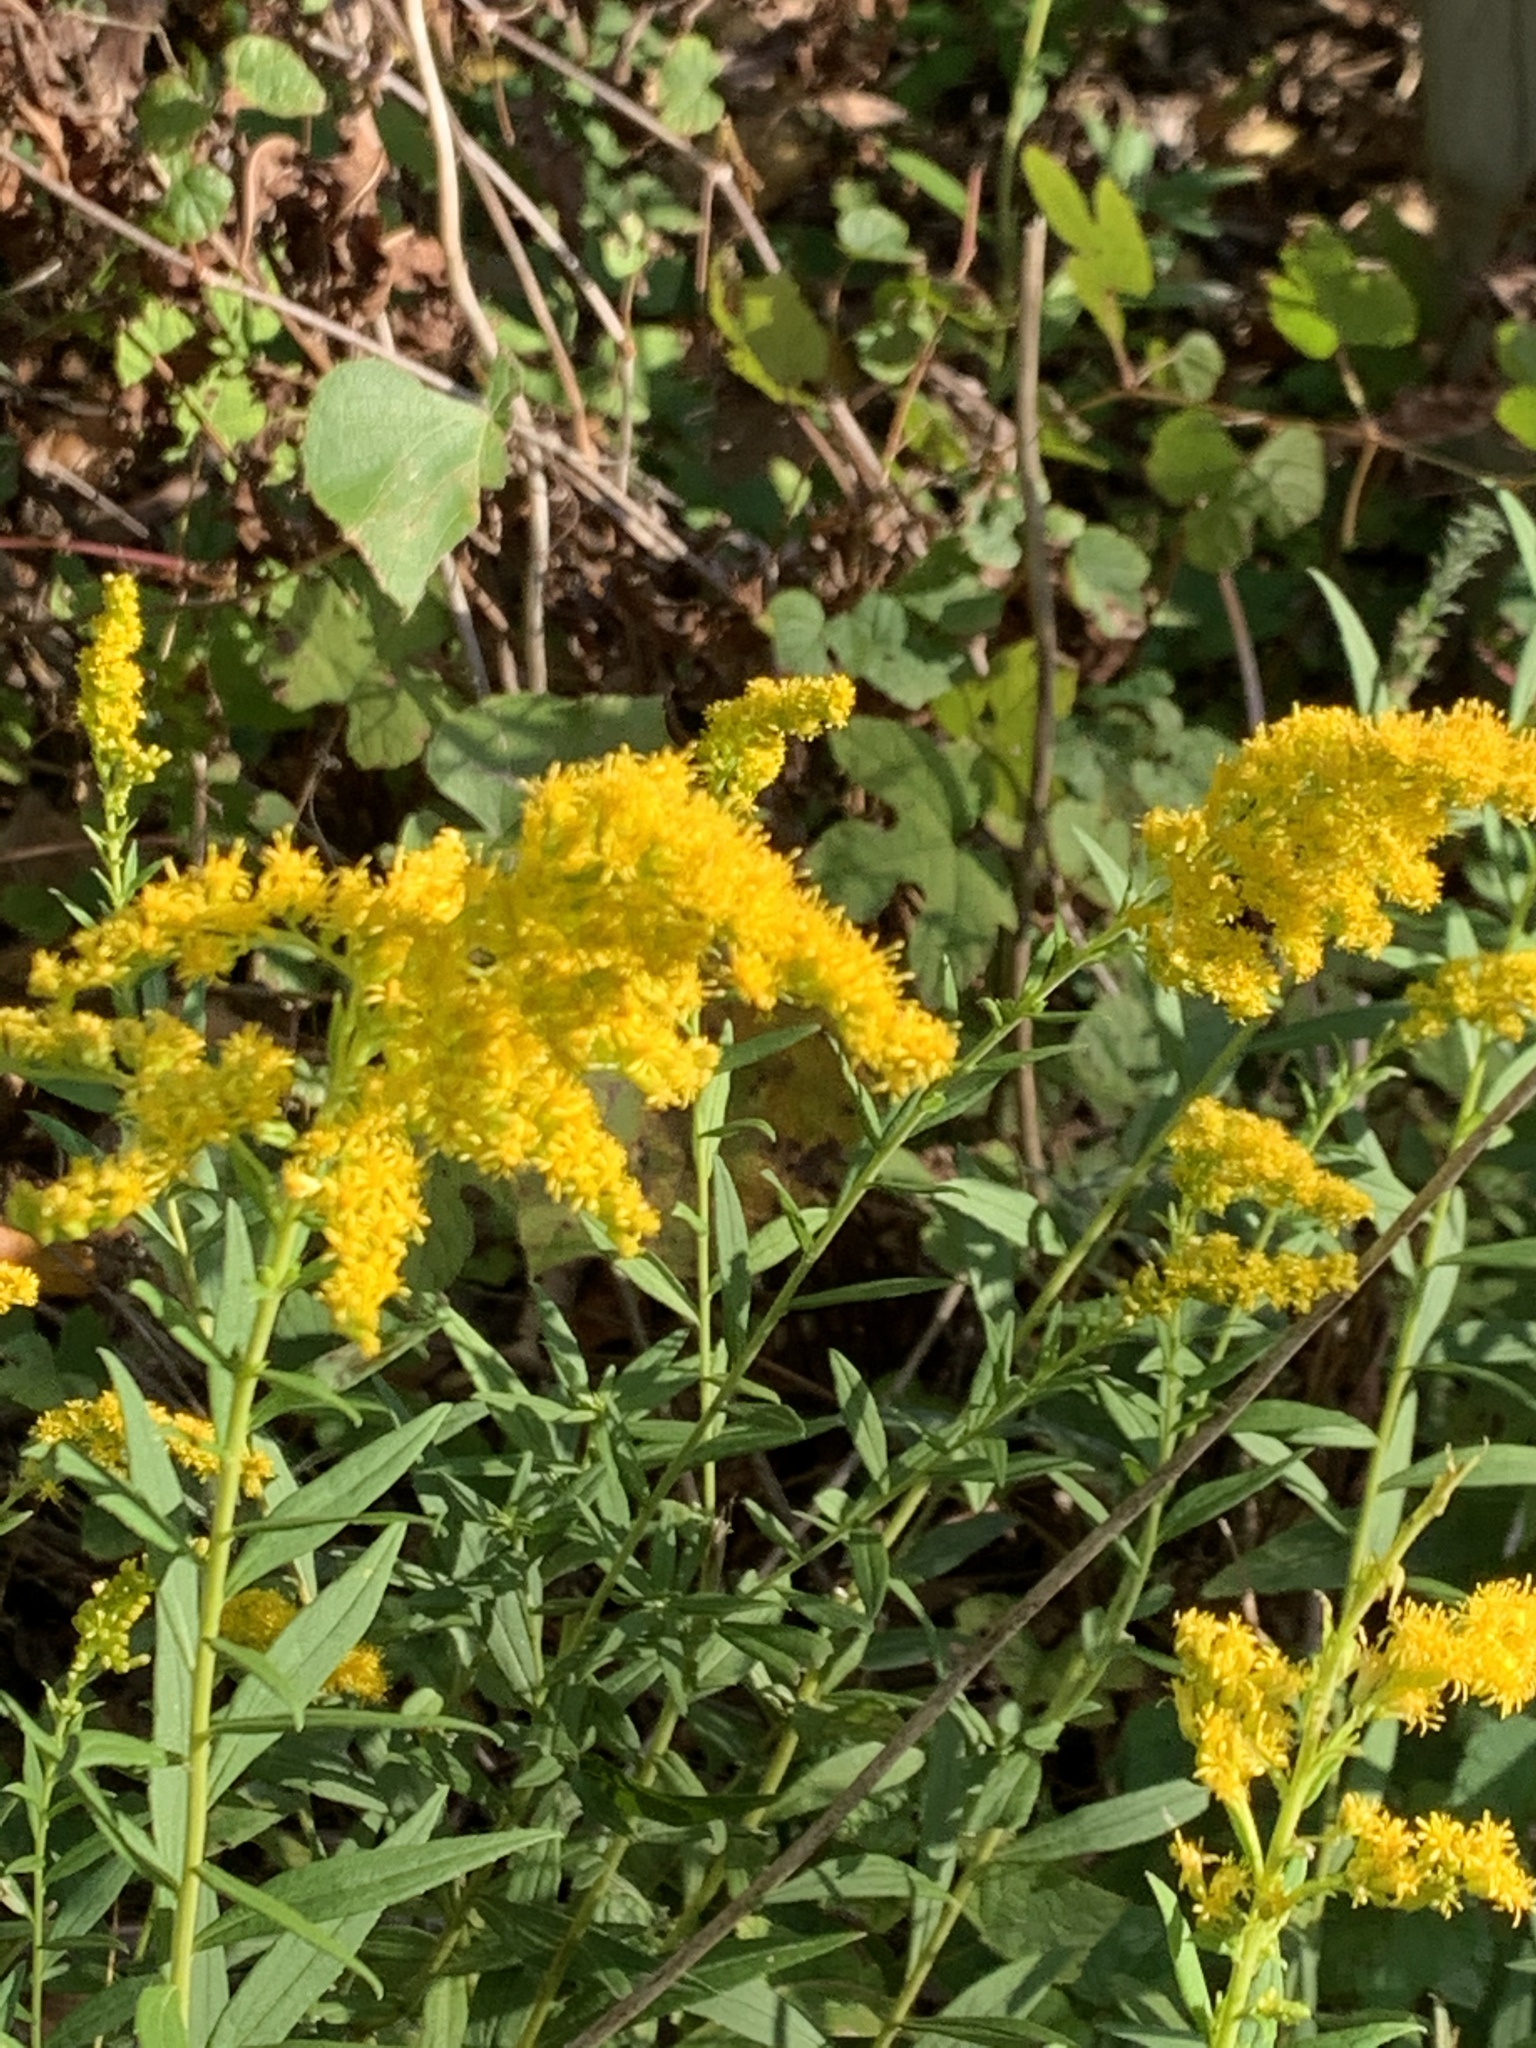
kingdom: Plantae
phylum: Tracheophyta
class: Magnoliopsida
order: Asterales
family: Asteraceae
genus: Solidago
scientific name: Solidago altissima
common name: Late goldenrod
